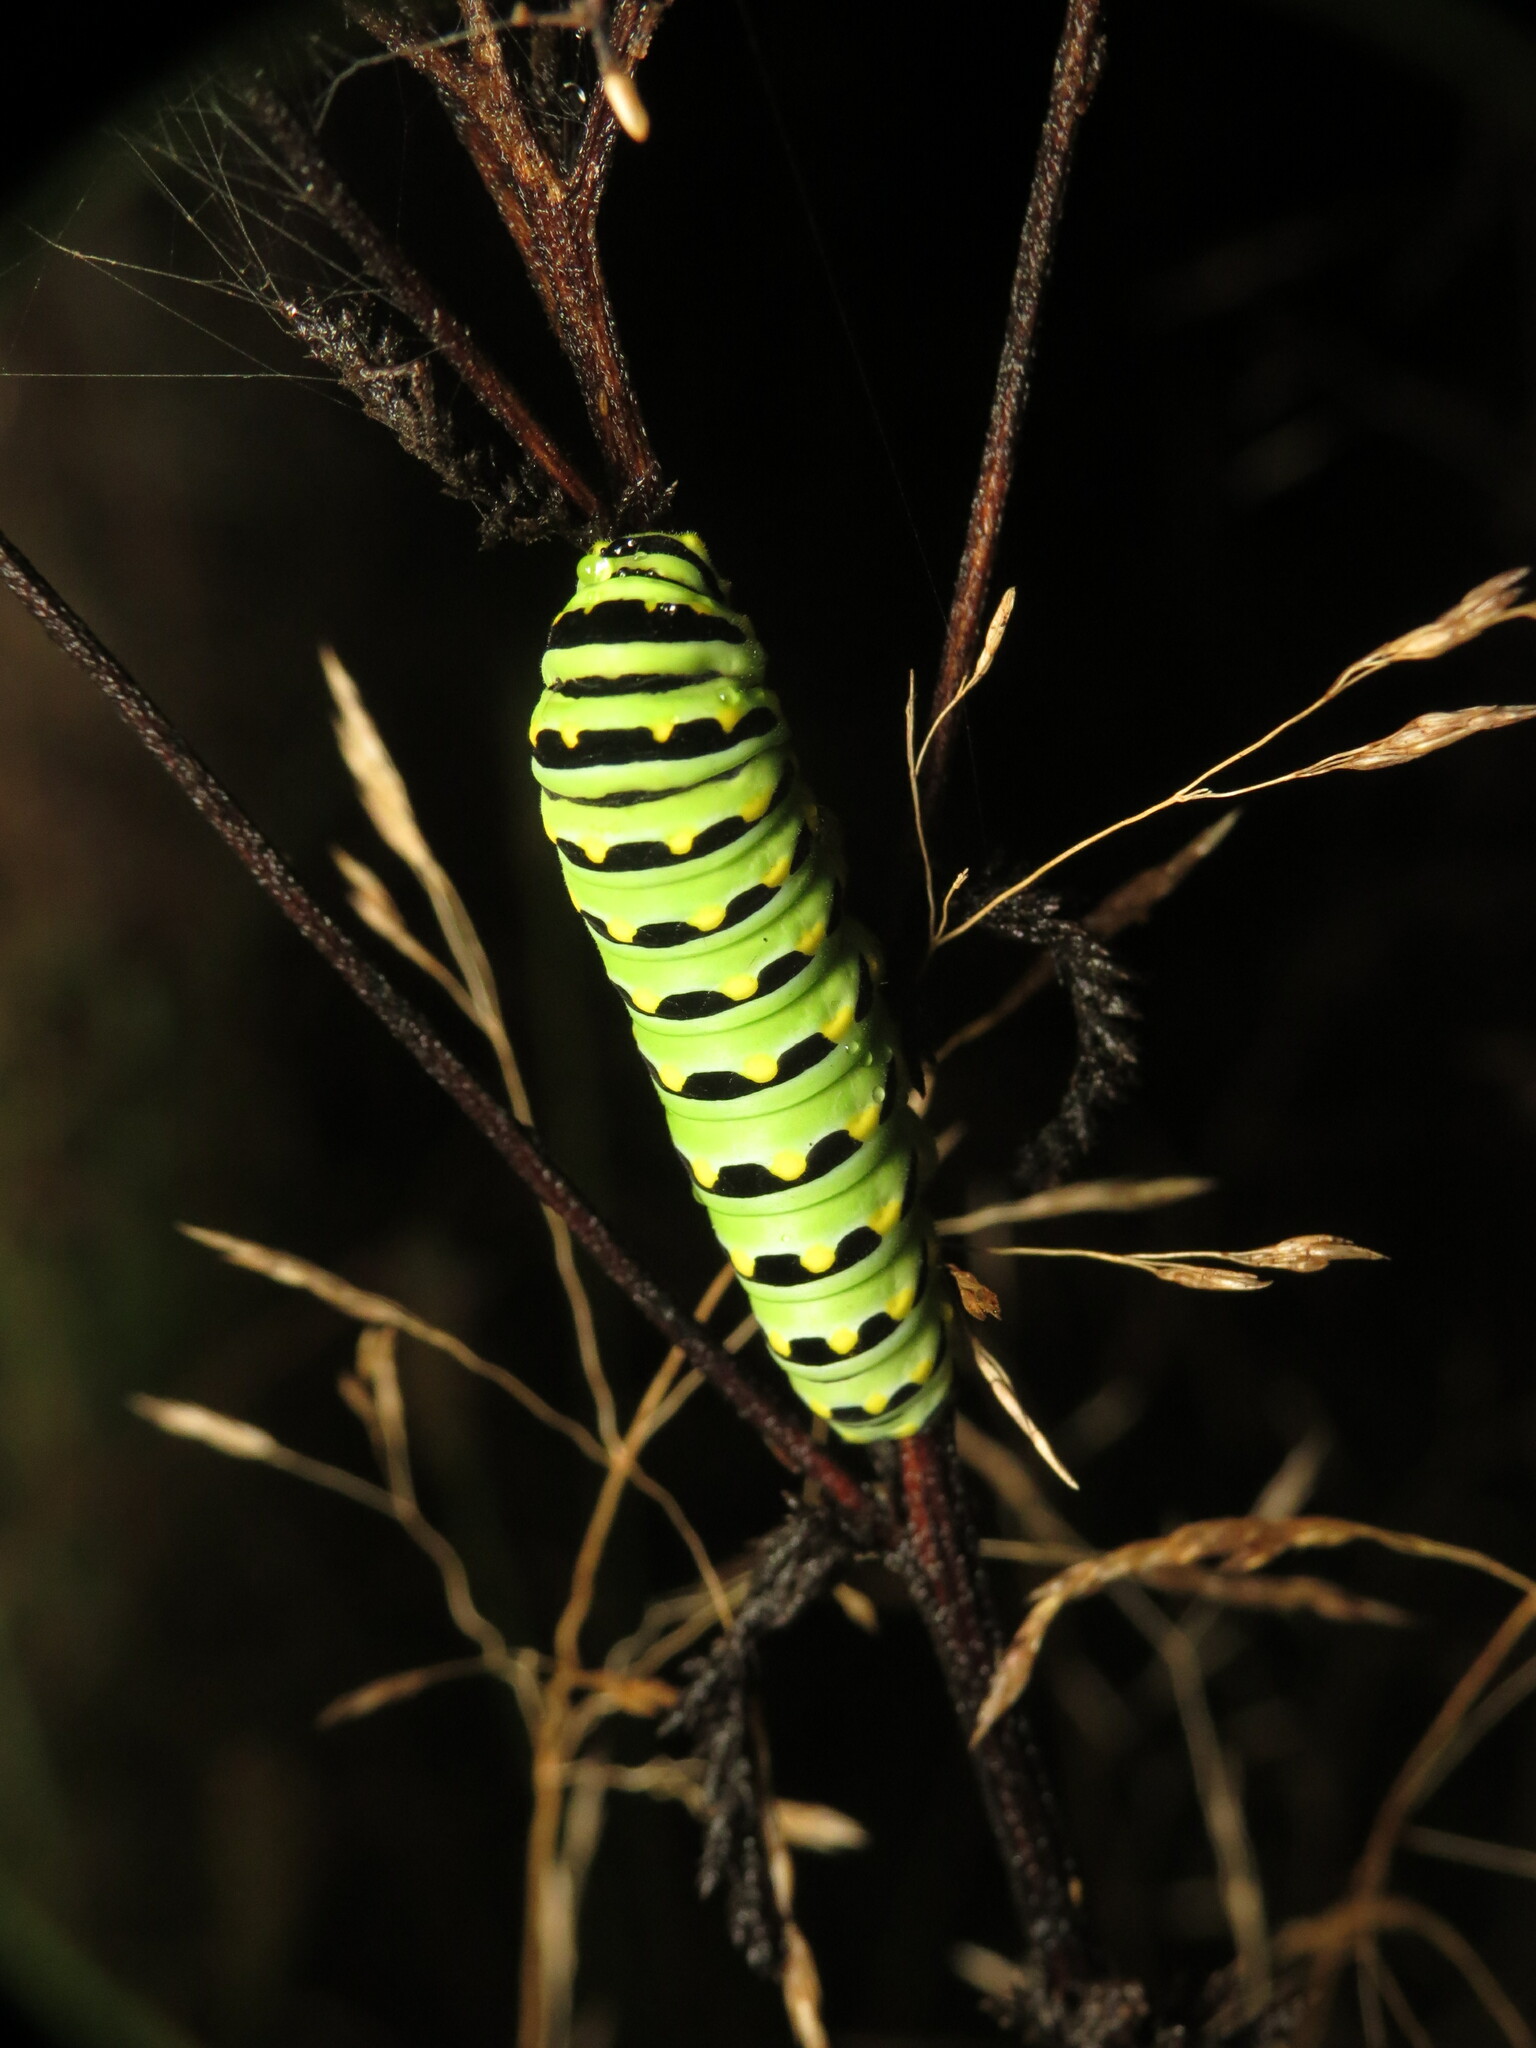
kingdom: Animalia
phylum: Arthropoda
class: Insecta
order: Lepidoptera
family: Papilionidae
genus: Papilio
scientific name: Papilio polyxenes
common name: Black swallowtail
